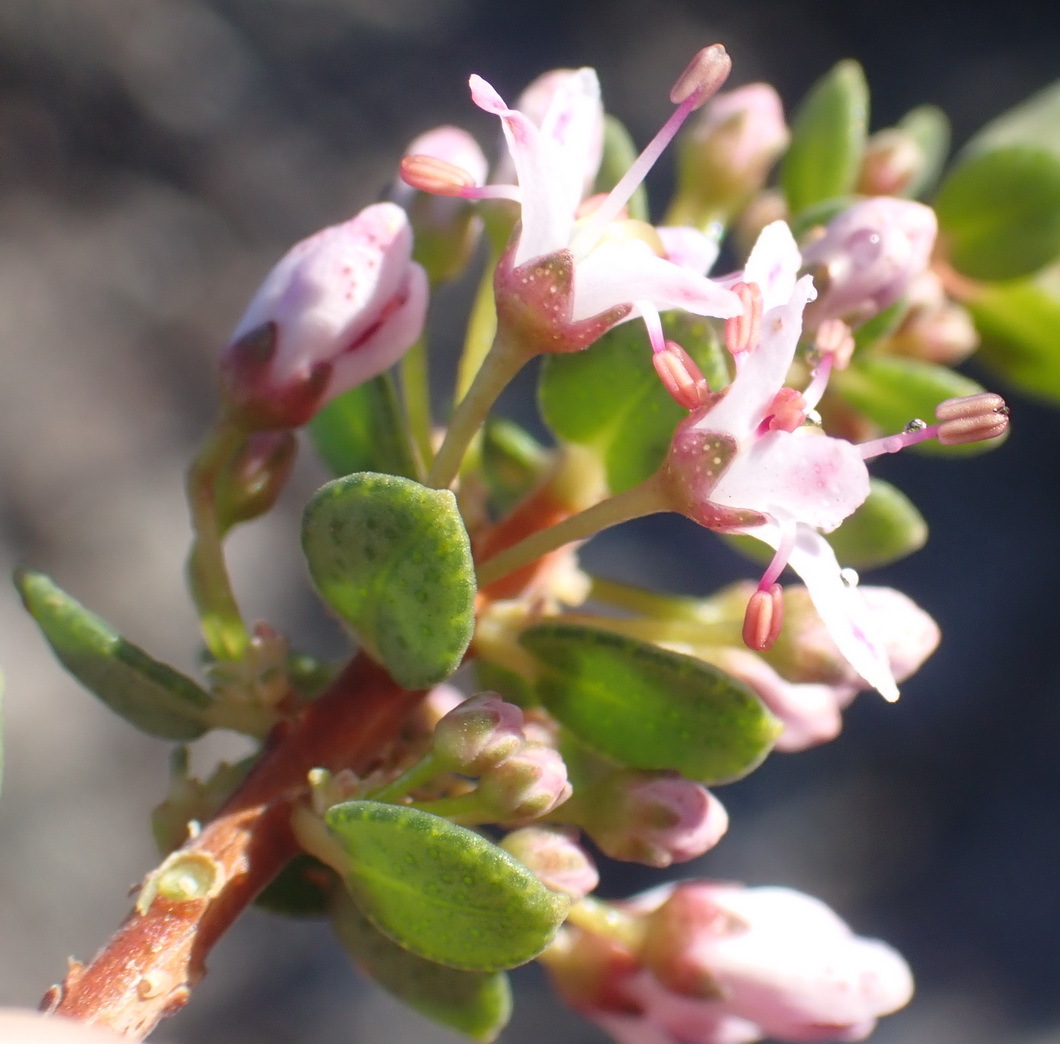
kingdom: Plantae
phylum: Tracheophyta
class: Magnoliopsida
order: Sapindales
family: Rutaceae
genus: Agathosma
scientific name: Agathosma ovata
